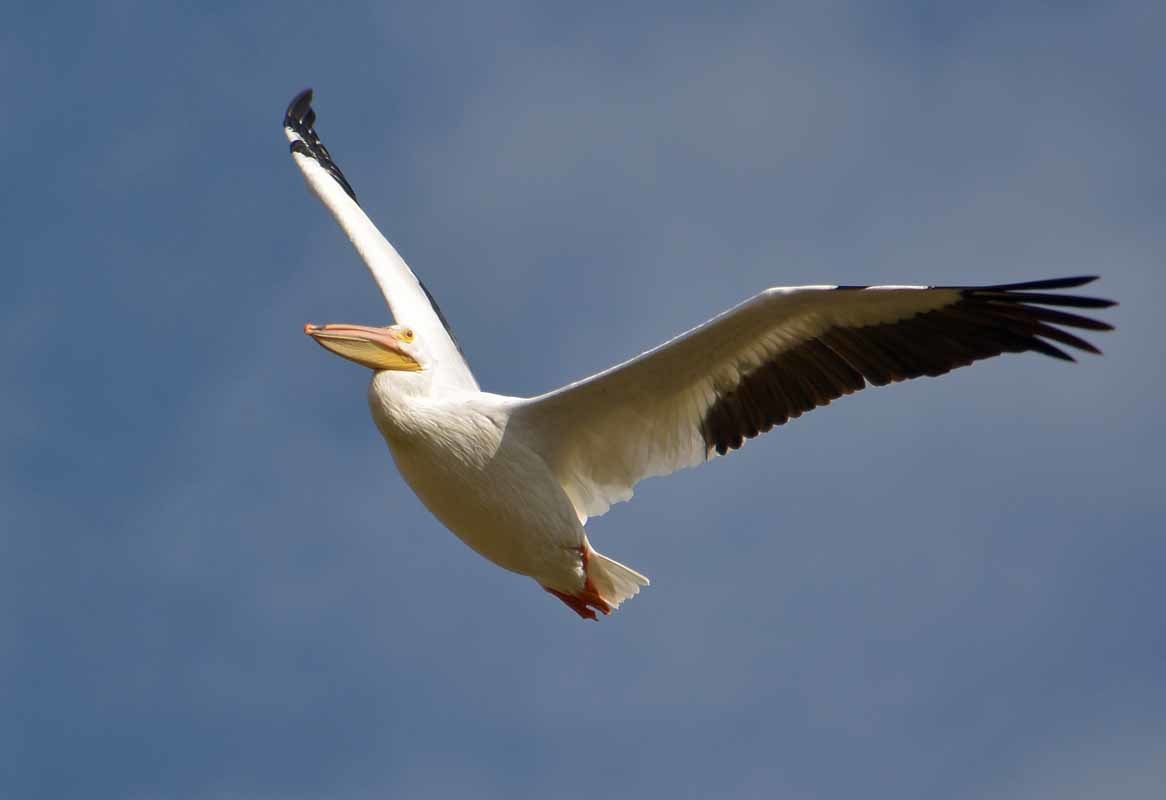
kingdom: Animalia
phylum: Chordata
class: Aves
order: Pelecaniformes
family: Pelecanidae
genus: Pelecanus
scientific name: Pelecanus erythrorhynchos
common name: American white pelican
